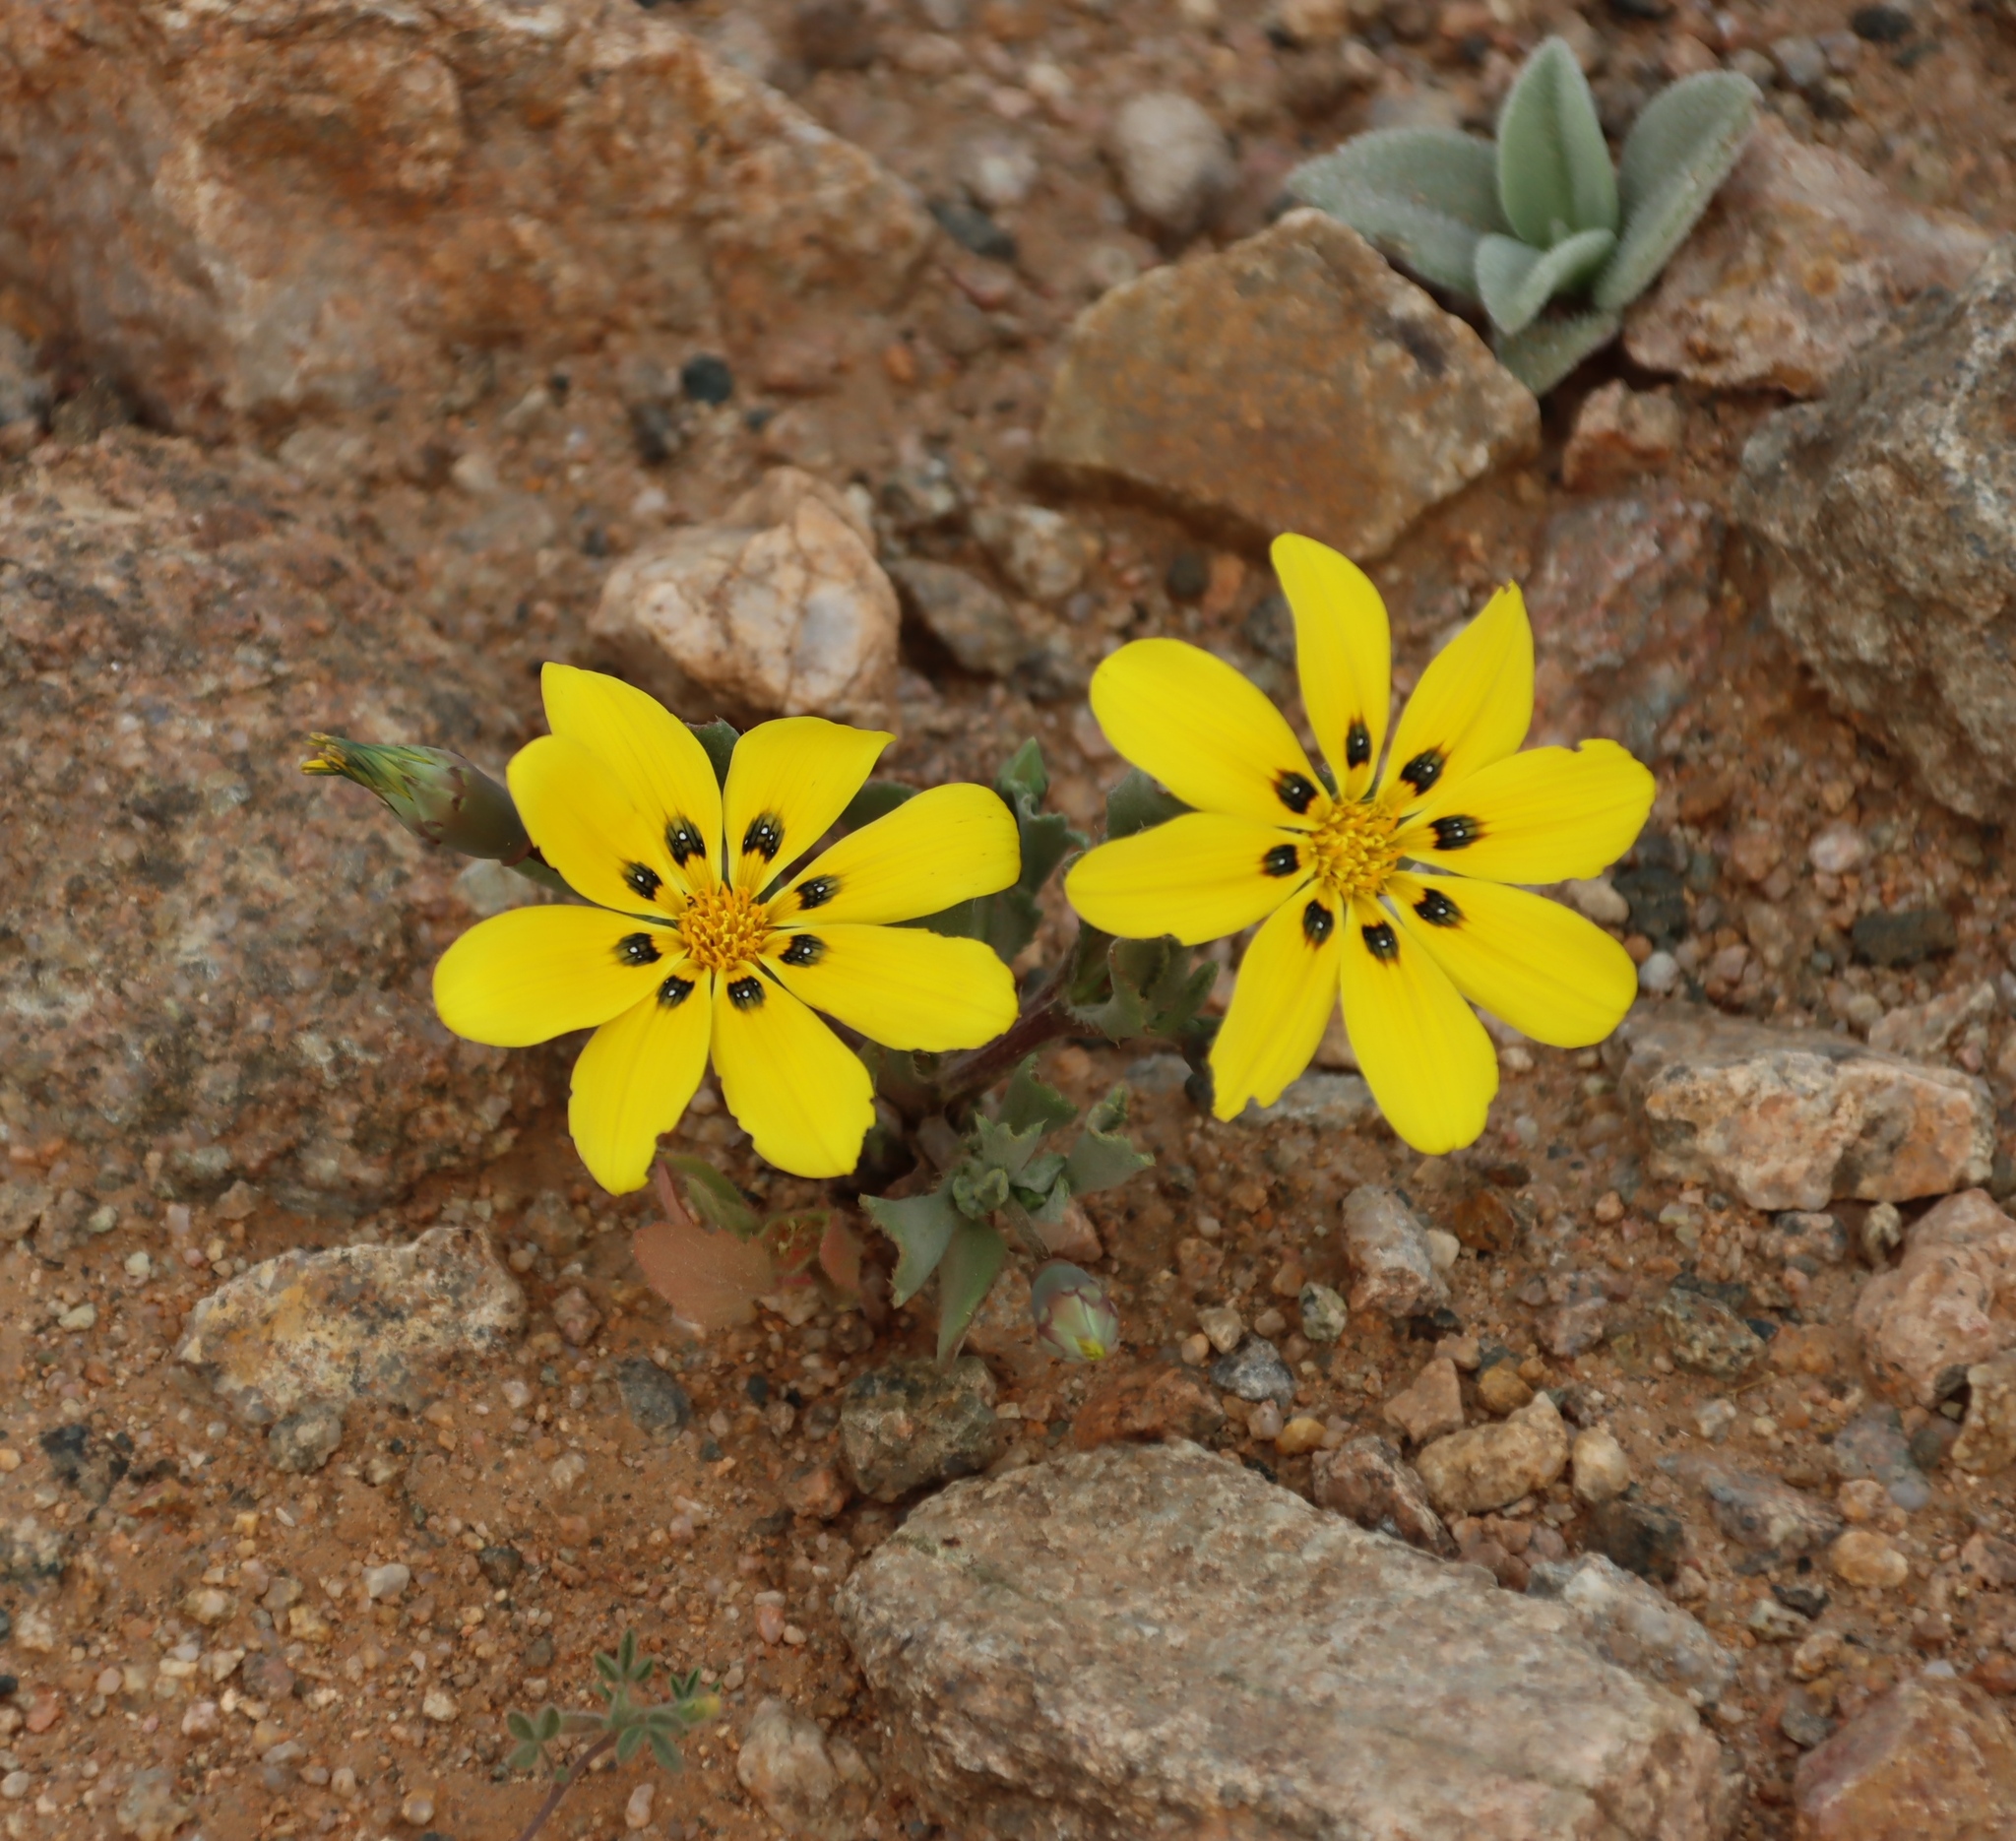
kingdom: Plantae
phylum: Tracheophyta
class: Magnoliopsida
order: Asterales
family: Asteraceae
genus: Gazania
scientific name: Gazania lichtensteinii
